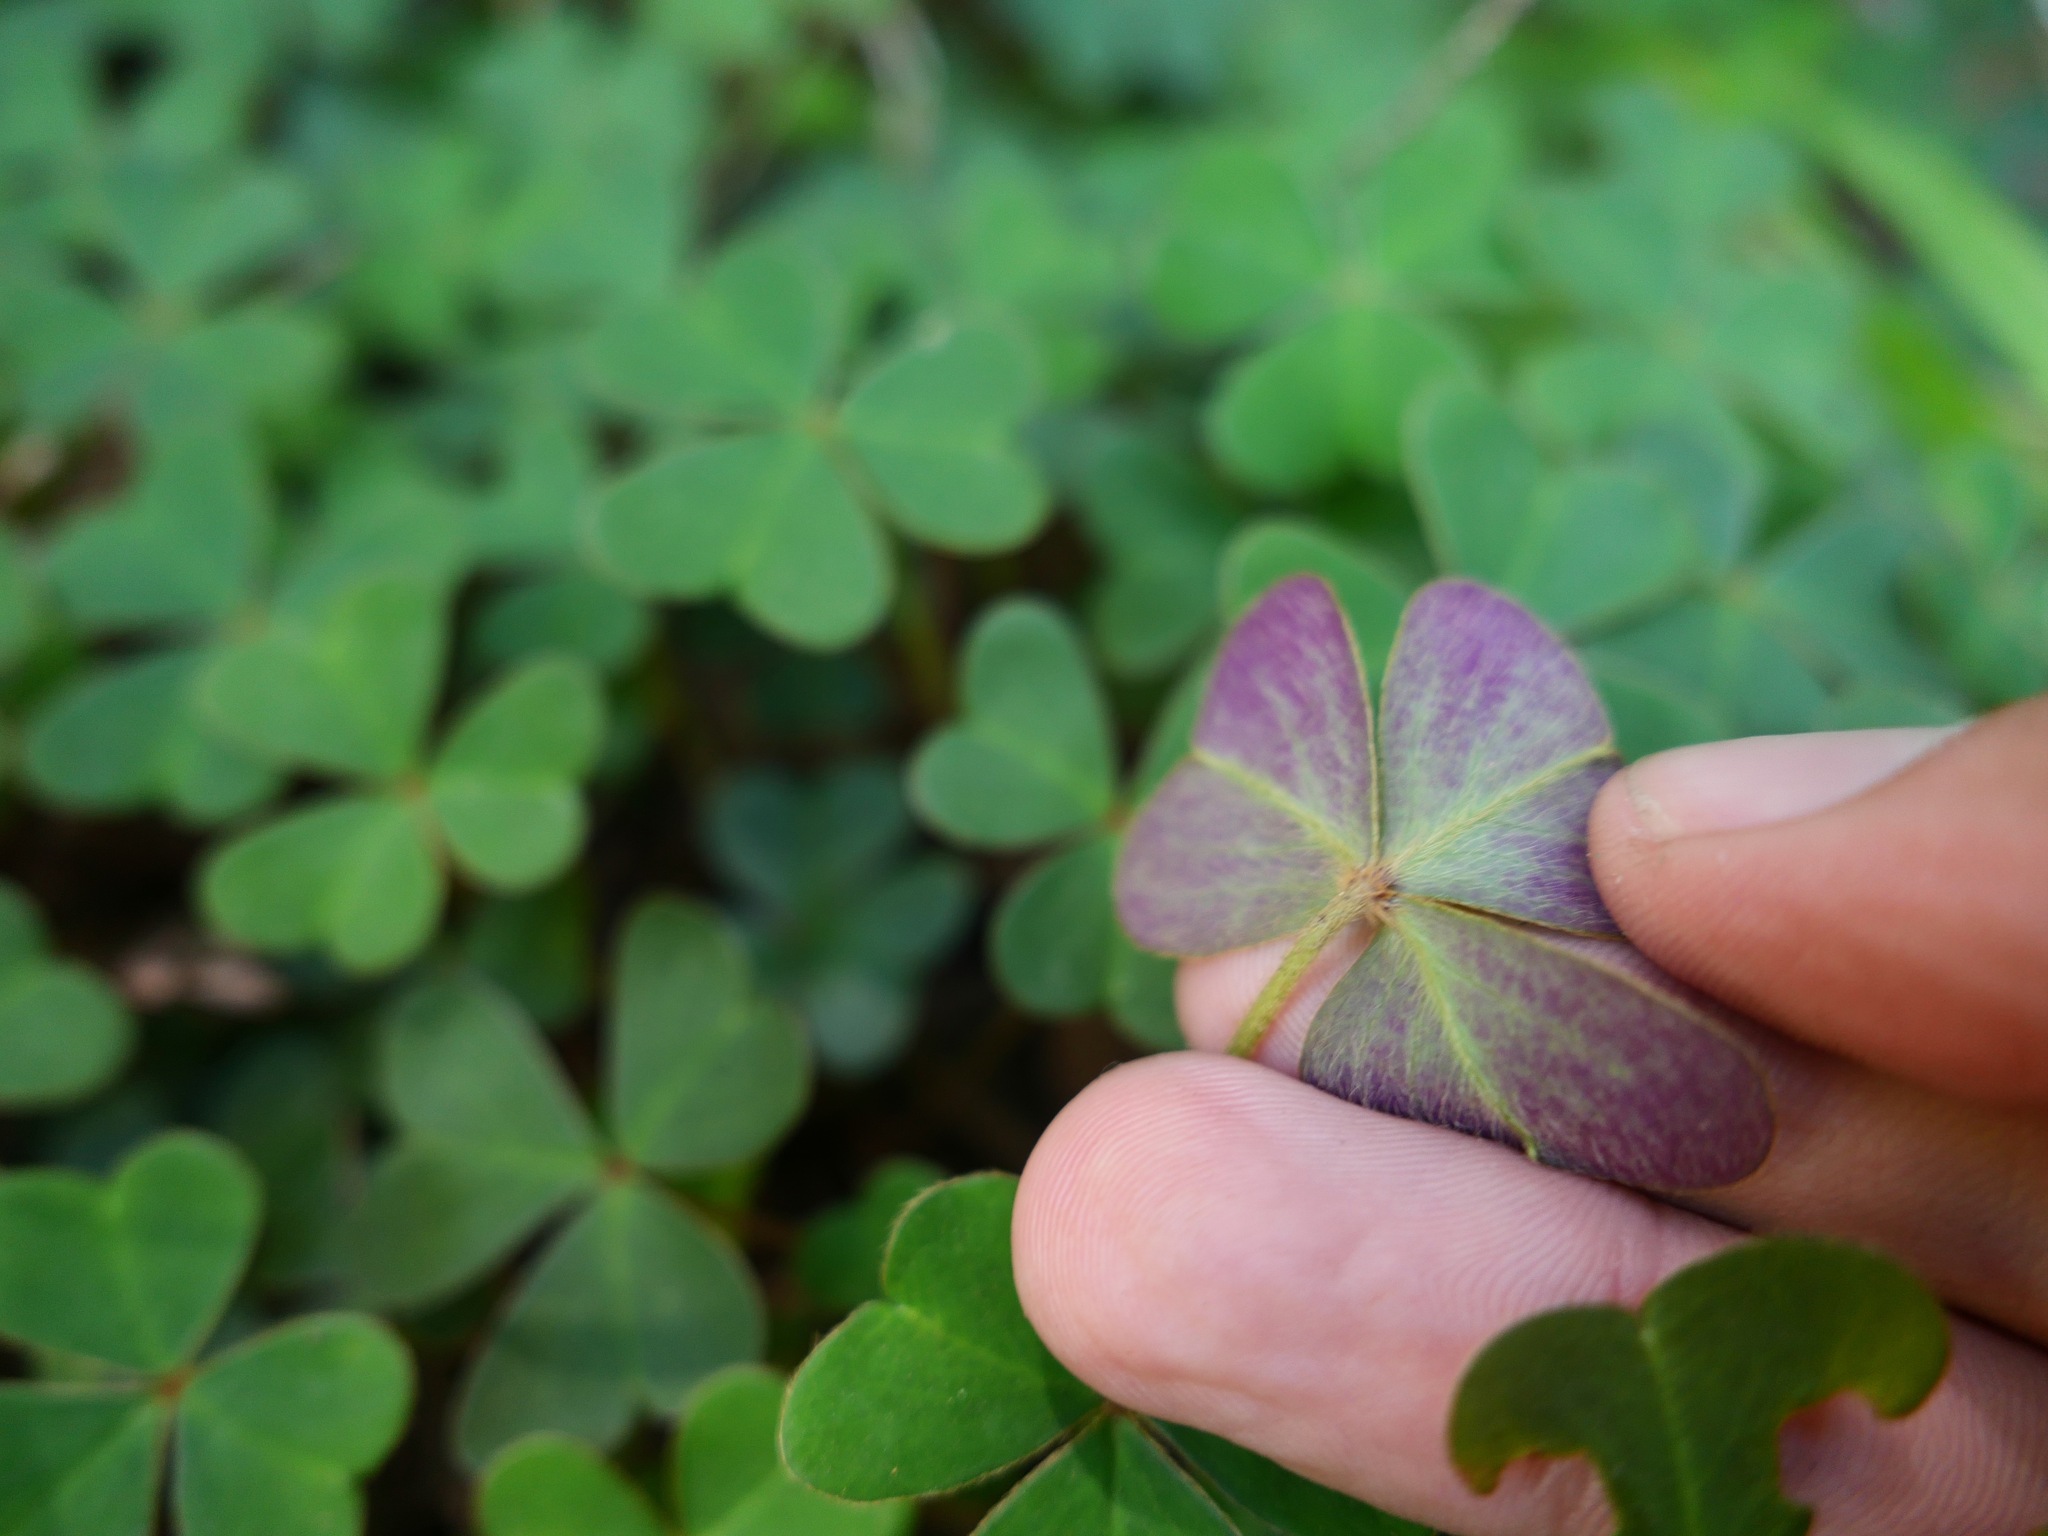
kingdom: Plantae
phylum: Tracheophyta
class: Magnoliopsida
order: Oxalidales
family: Oxalidaceae
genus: Oxalis
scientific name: Oxalis oregana
